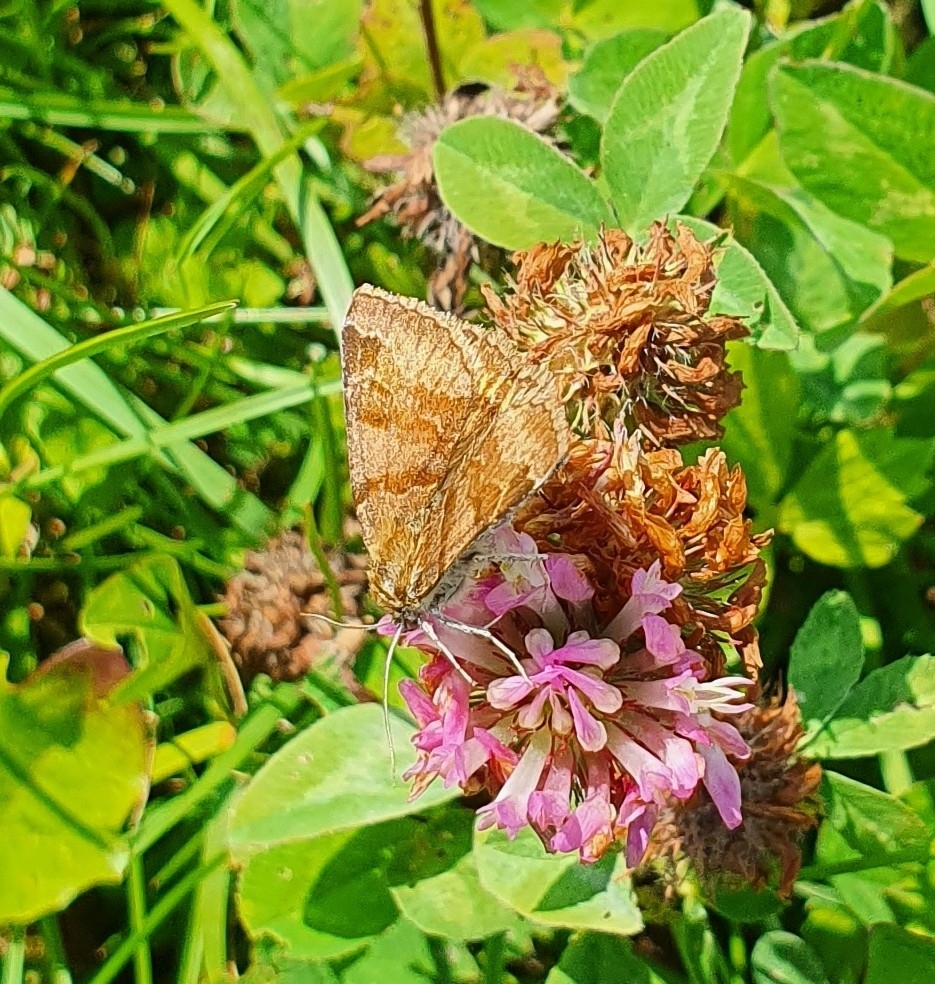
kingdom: Animalia
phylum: Arthropoda
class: Insecta
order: Lepidoptera
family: Erebidae
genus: Euclidia
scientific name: Euclidia glyphica
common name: Burnet companion
